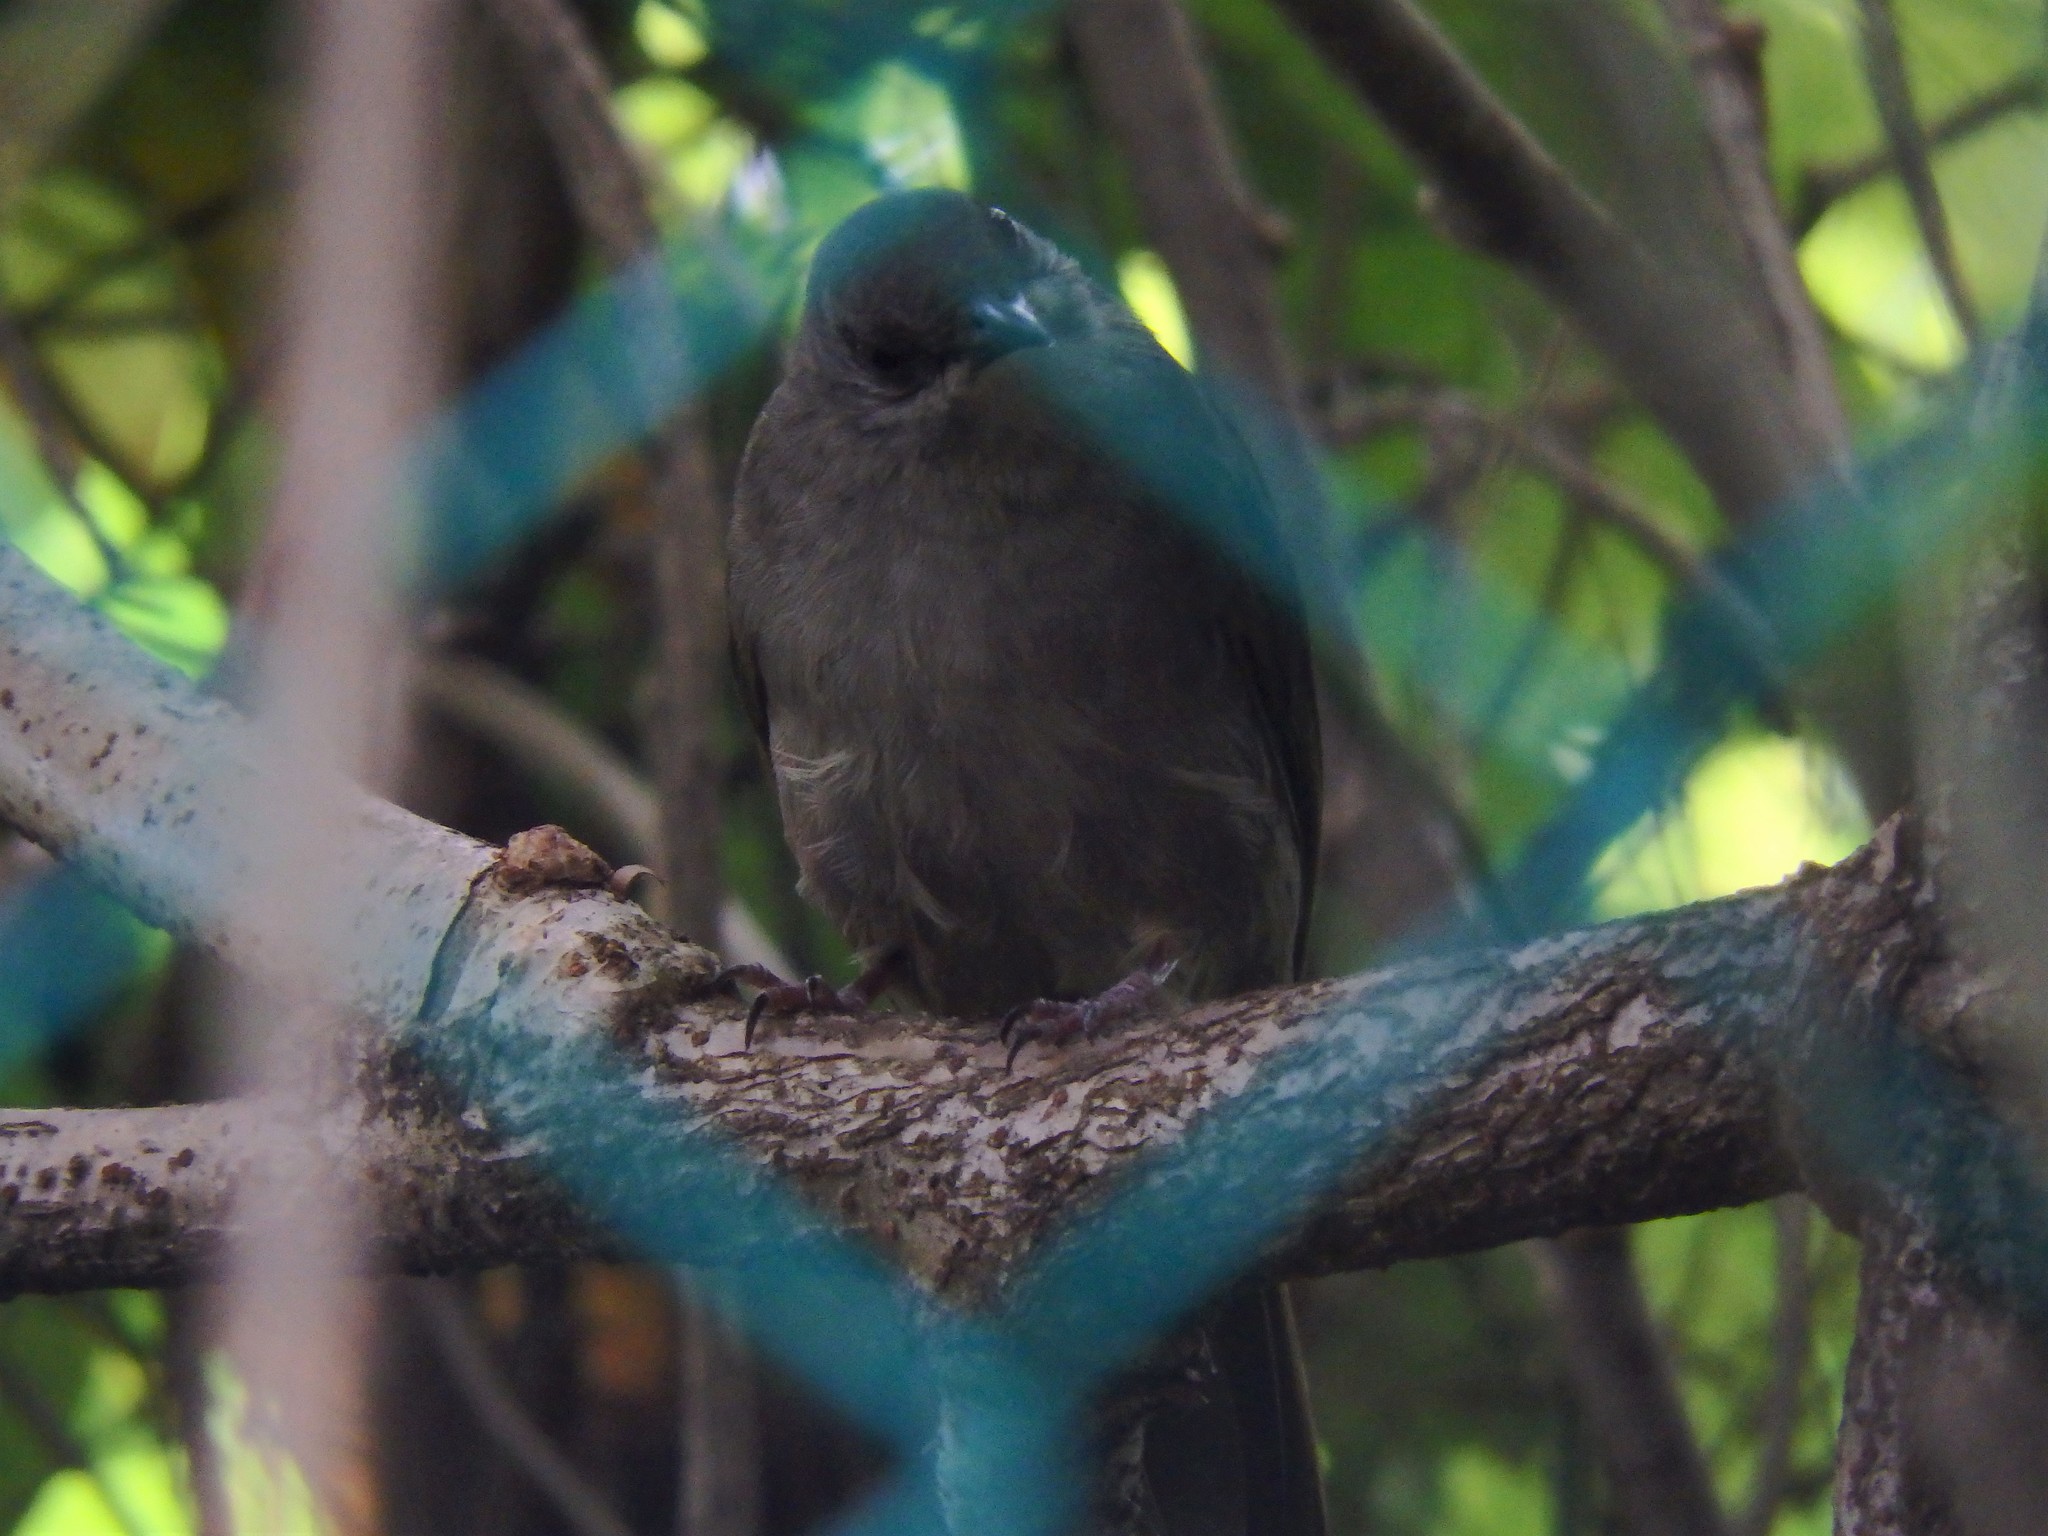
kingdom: Animalia
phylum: Chordata
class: Aves
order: Passeriformes
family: Pycnonotidae
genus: Pycnonotus
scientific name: Pycnonotus plumosus
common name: Olive-winged bulbul
